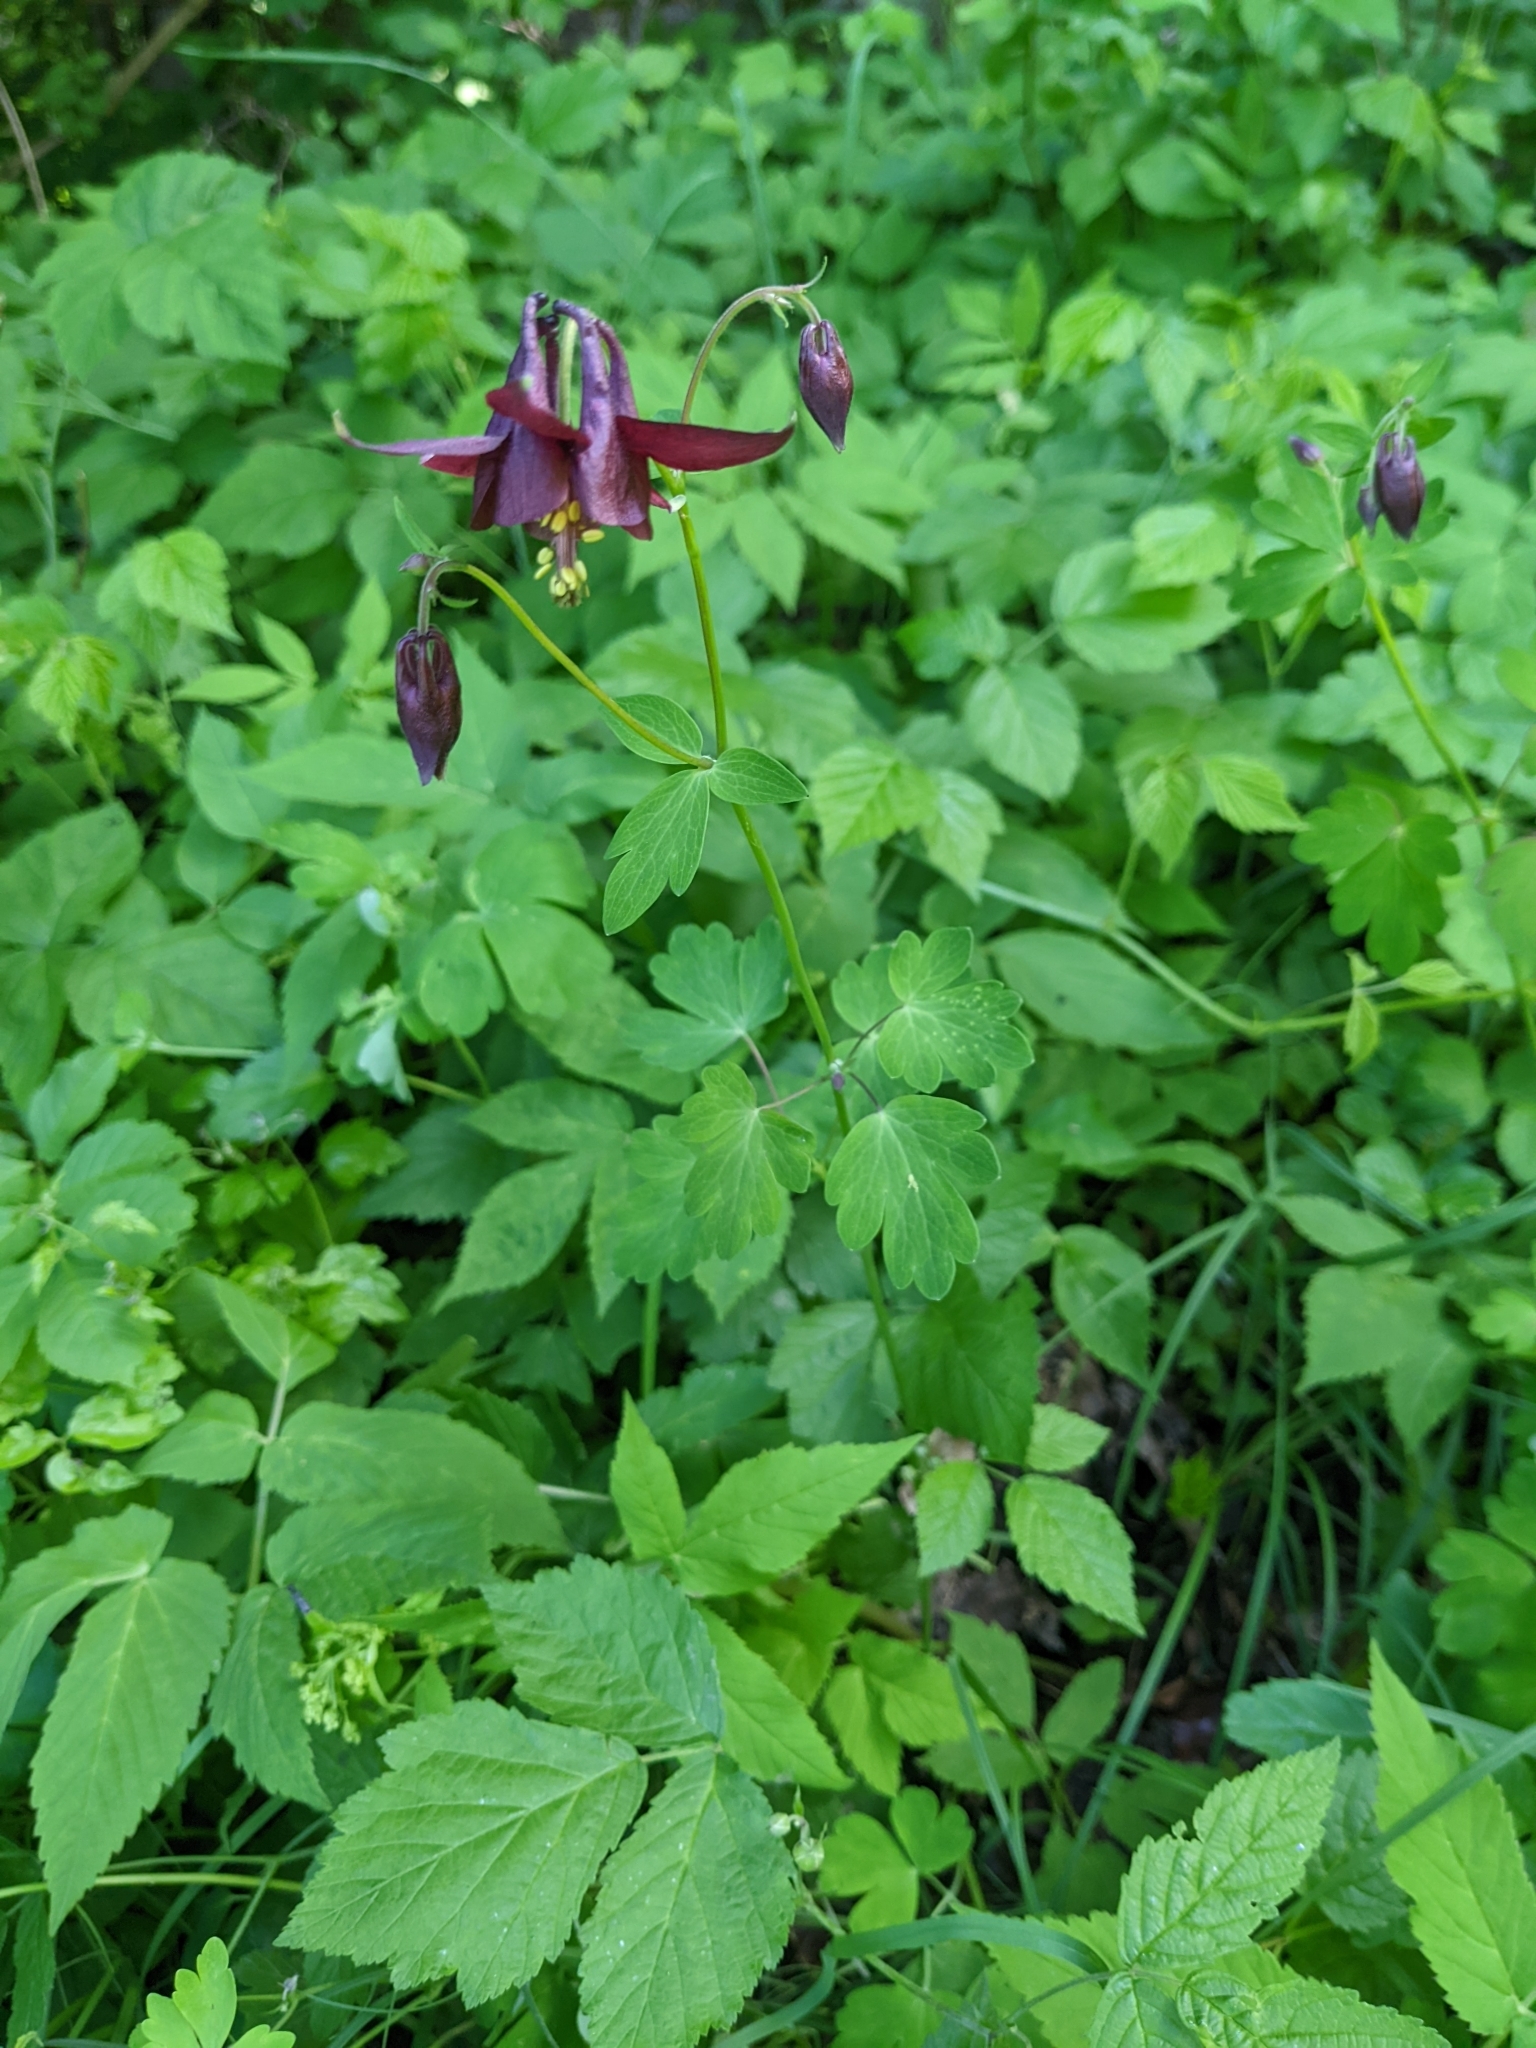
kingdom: Plantae
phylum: Tracheophyta
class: Magnoliopsida
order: Ranunculales
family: Ranunculaceae
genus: Aquilegia
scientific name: Aquilegia atrata
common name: Dark columbine
